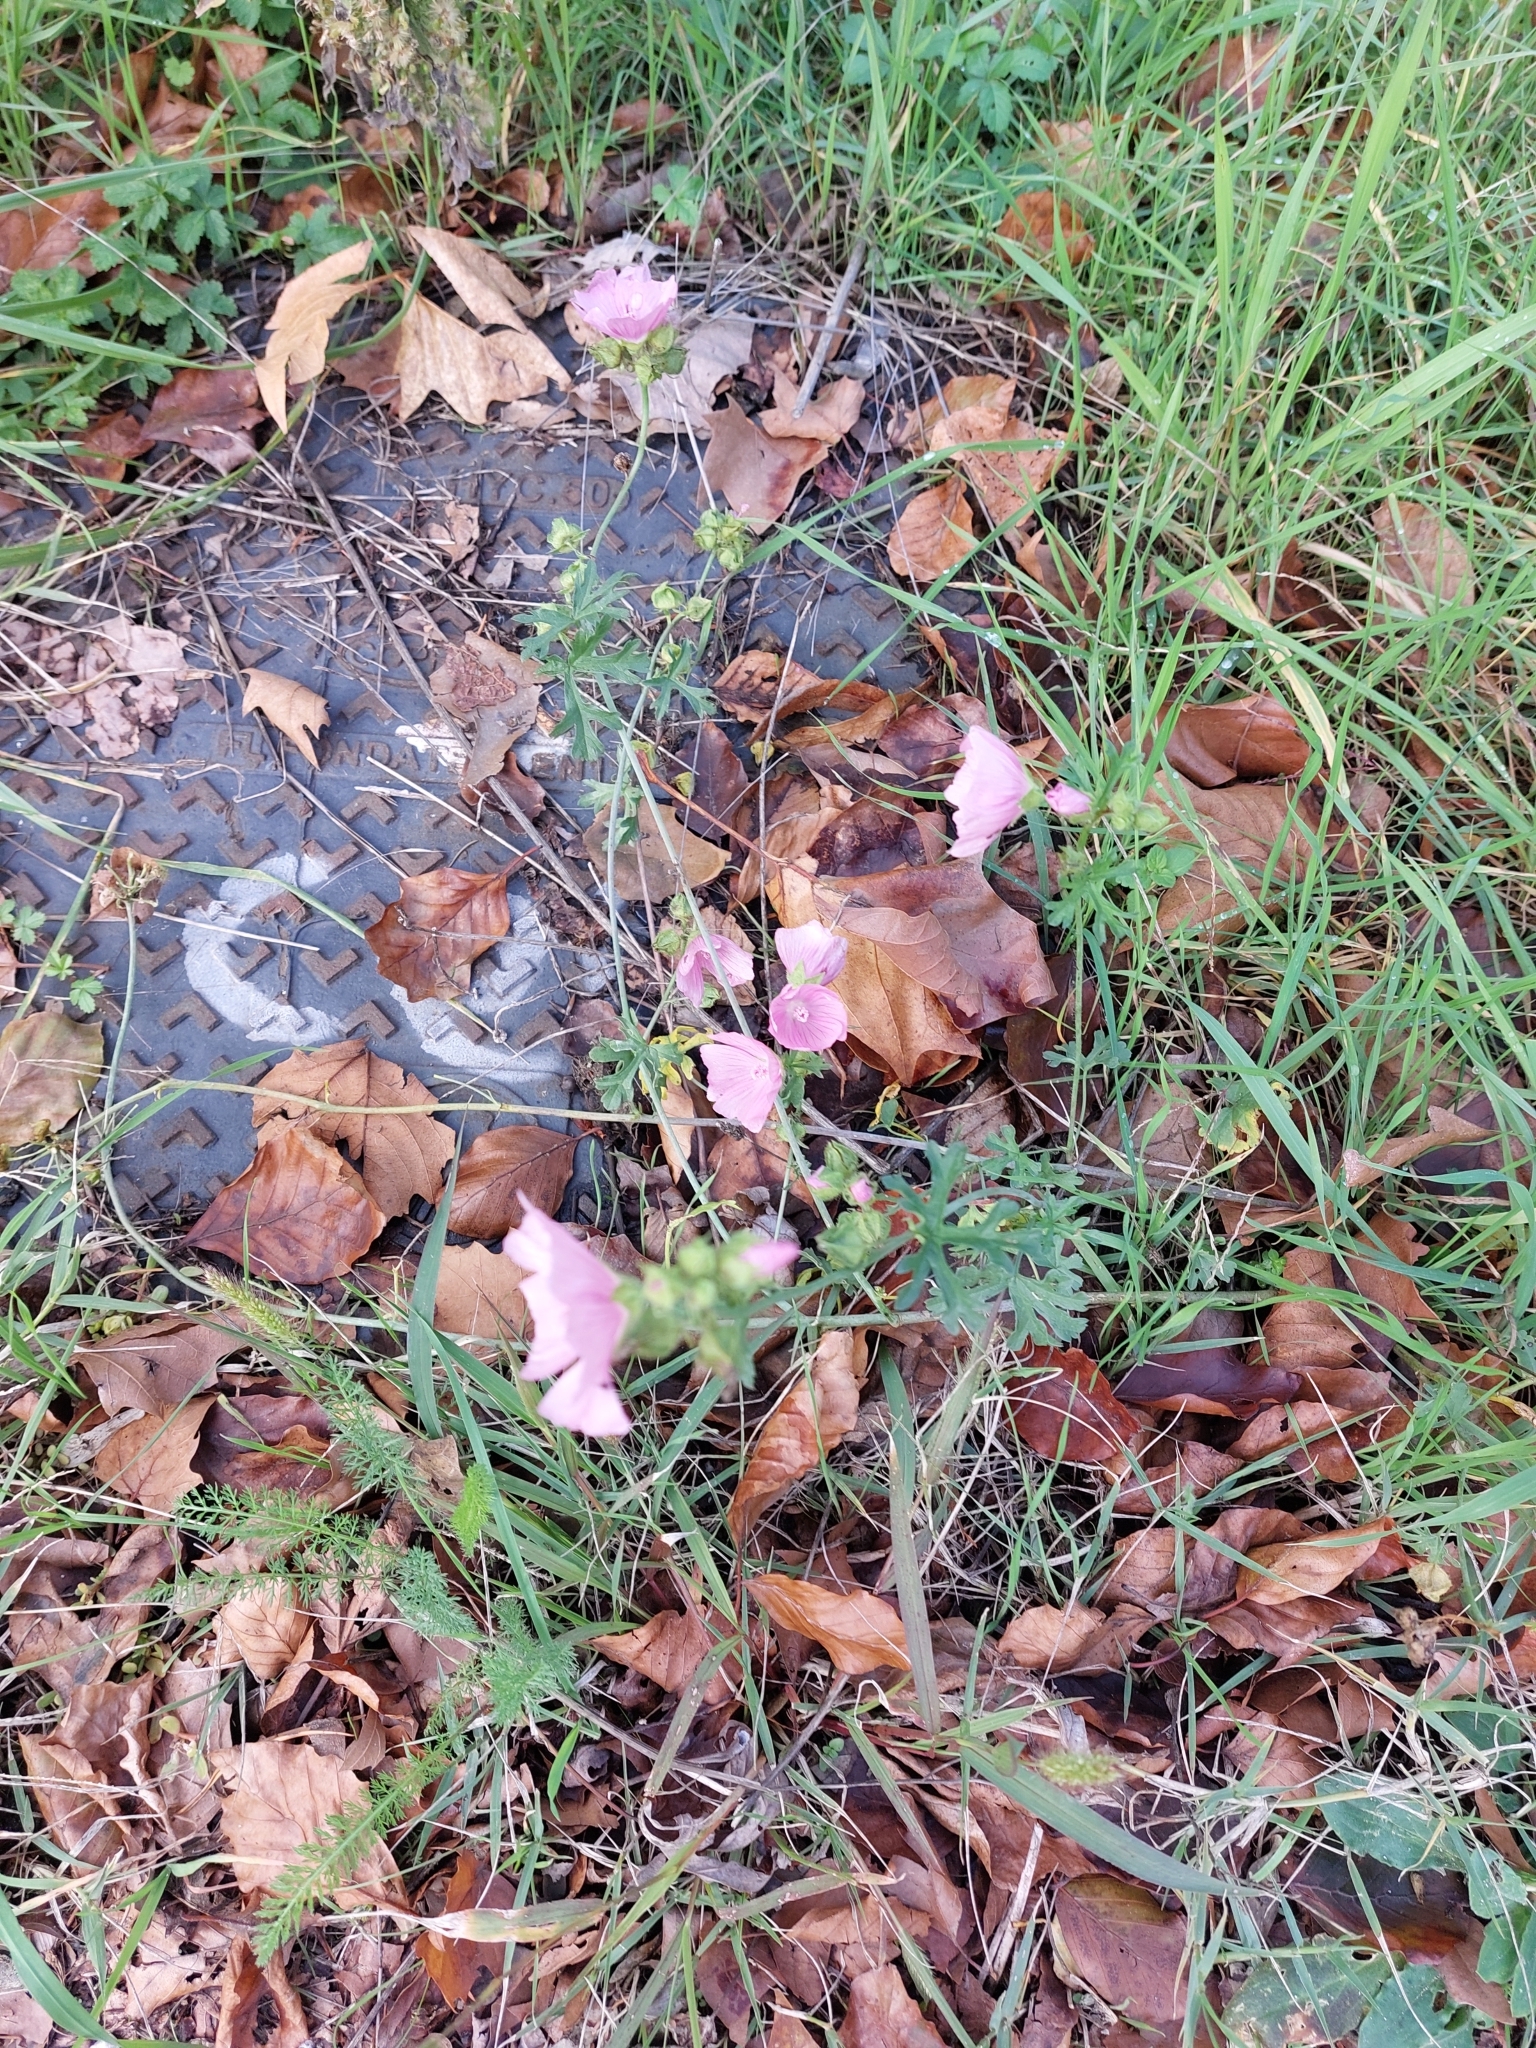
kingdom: Plantae
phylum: Tracheophyta
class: Magnoliopsida
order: Malvales
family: Malvaceae
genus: Malva
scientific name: Malva moschata
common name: Musk mallow
